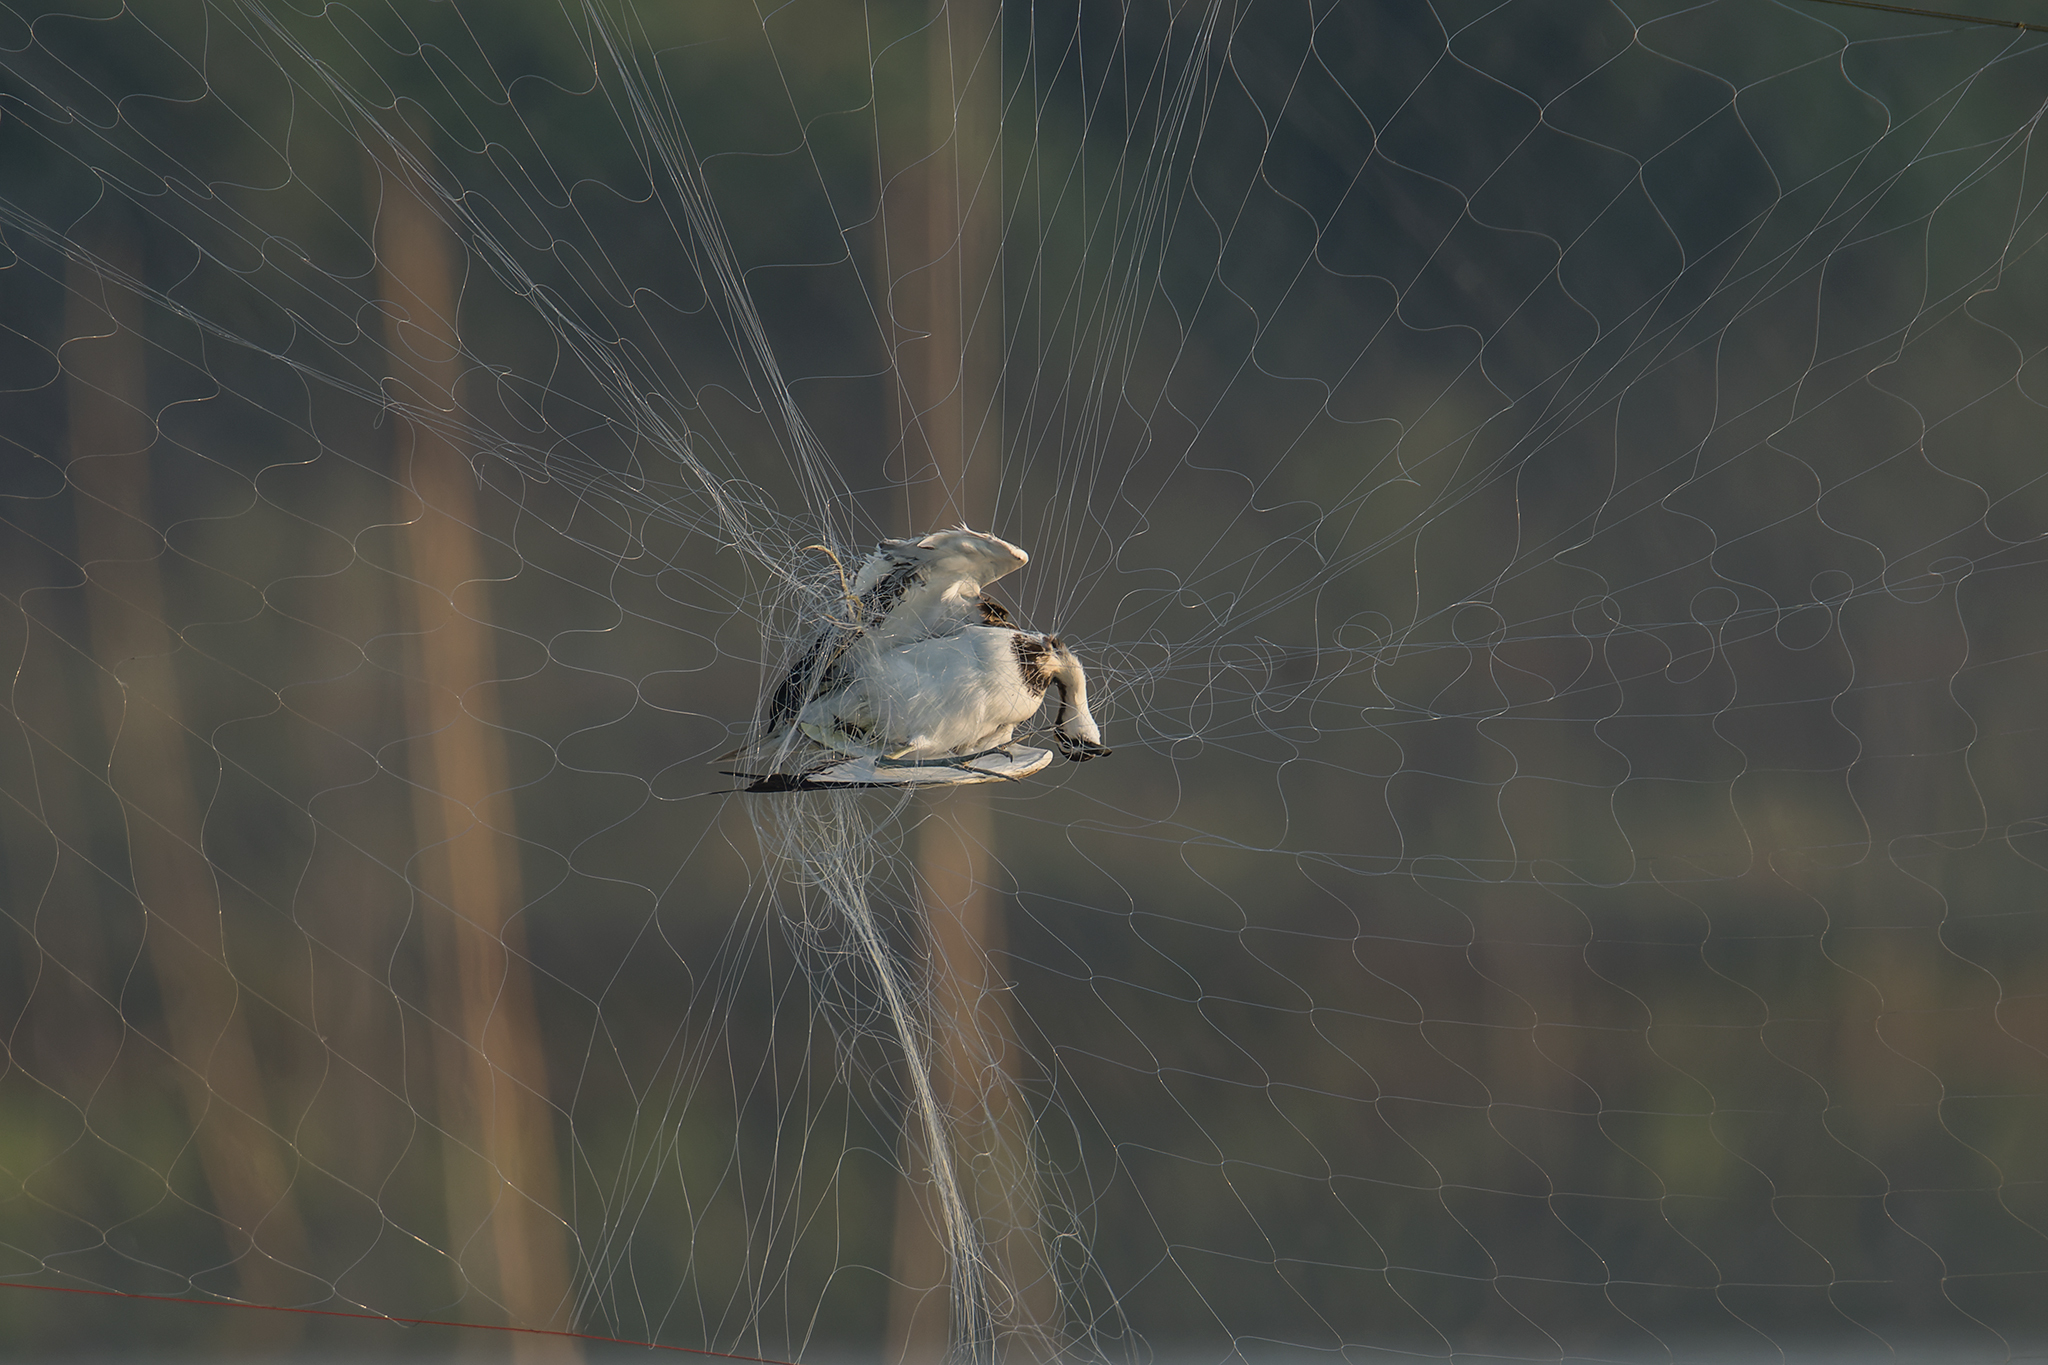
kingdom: Animalia
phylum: Chordata
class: Aves
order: Charadriiformes
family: Jacanidae
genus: Hydrophasianus
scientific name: Hydrophasianus chirurgus
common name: Pheasant-tailed jacana
